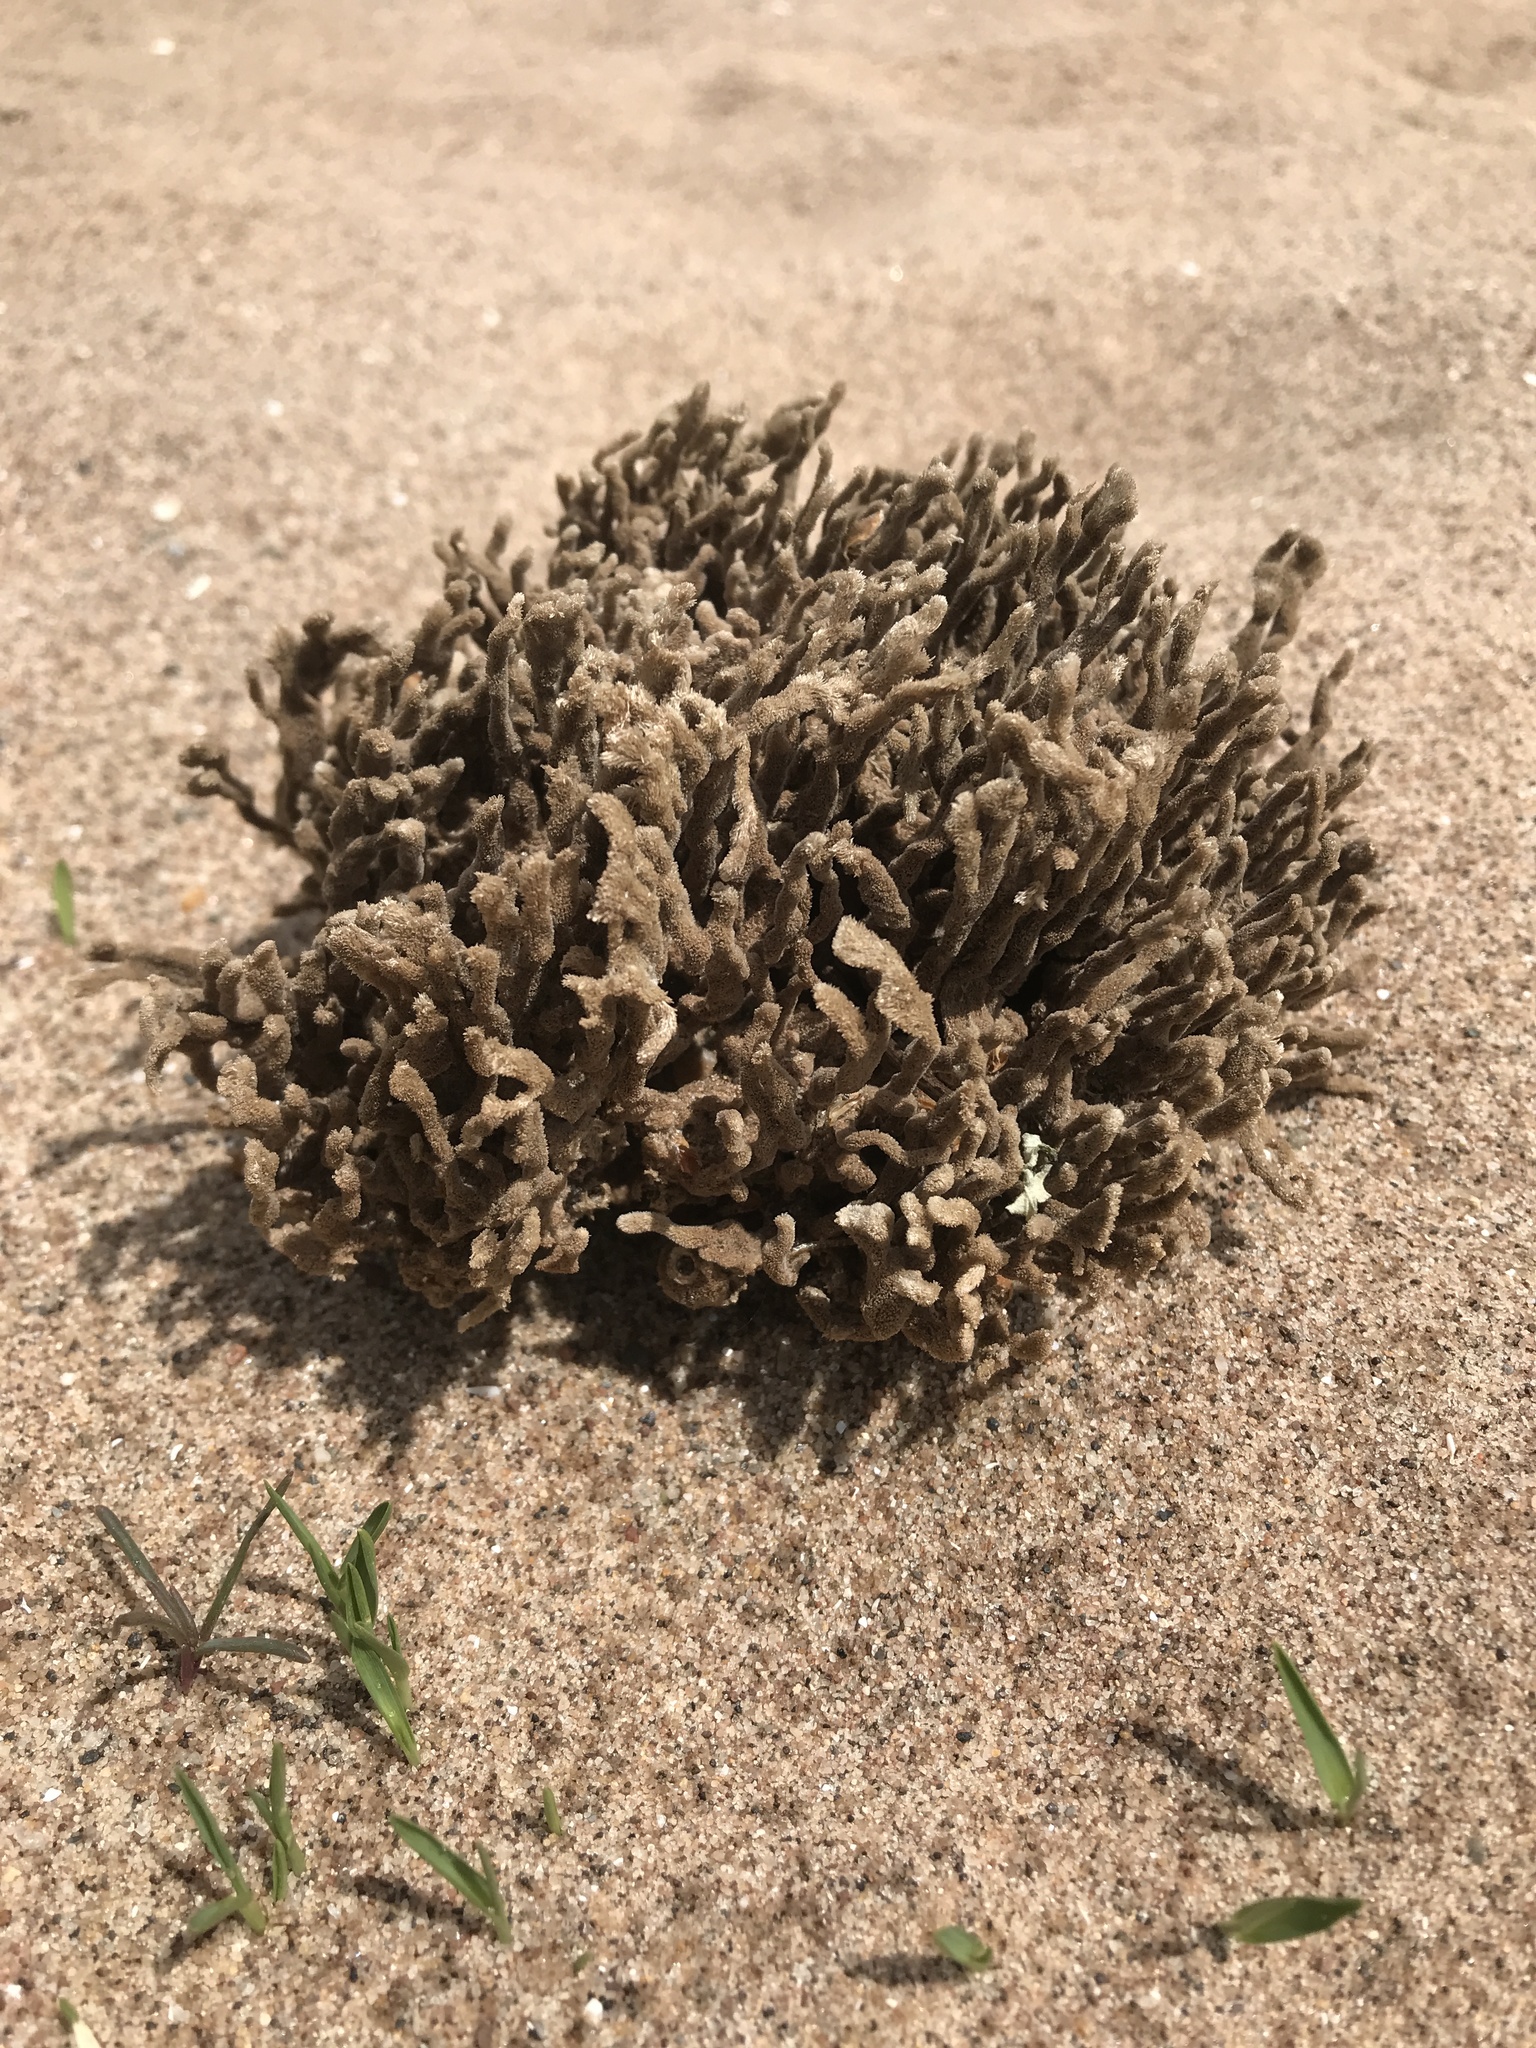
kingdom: Animalia
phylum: Porifera
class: Demospongiae
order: Poecilosclerida
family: Microcionidae
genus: Clathria
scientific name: Clathria prolifera
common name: Red beard sponge
